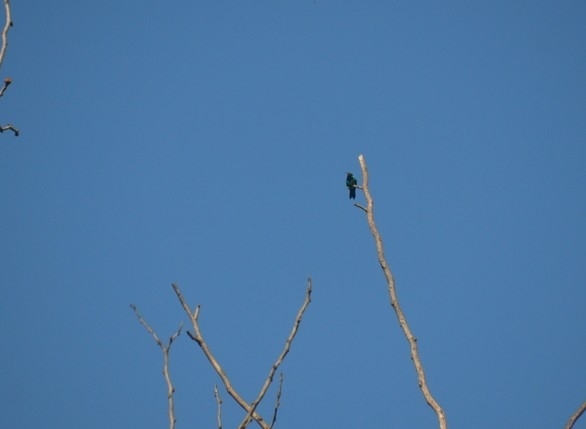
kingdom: Animalia
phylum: Chordata
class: Aves
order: Apodiformes
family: Trochilidae
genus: Chlorostilbon
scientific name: Chlorostilbon lucidus
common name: Glittering-bellied emerald
